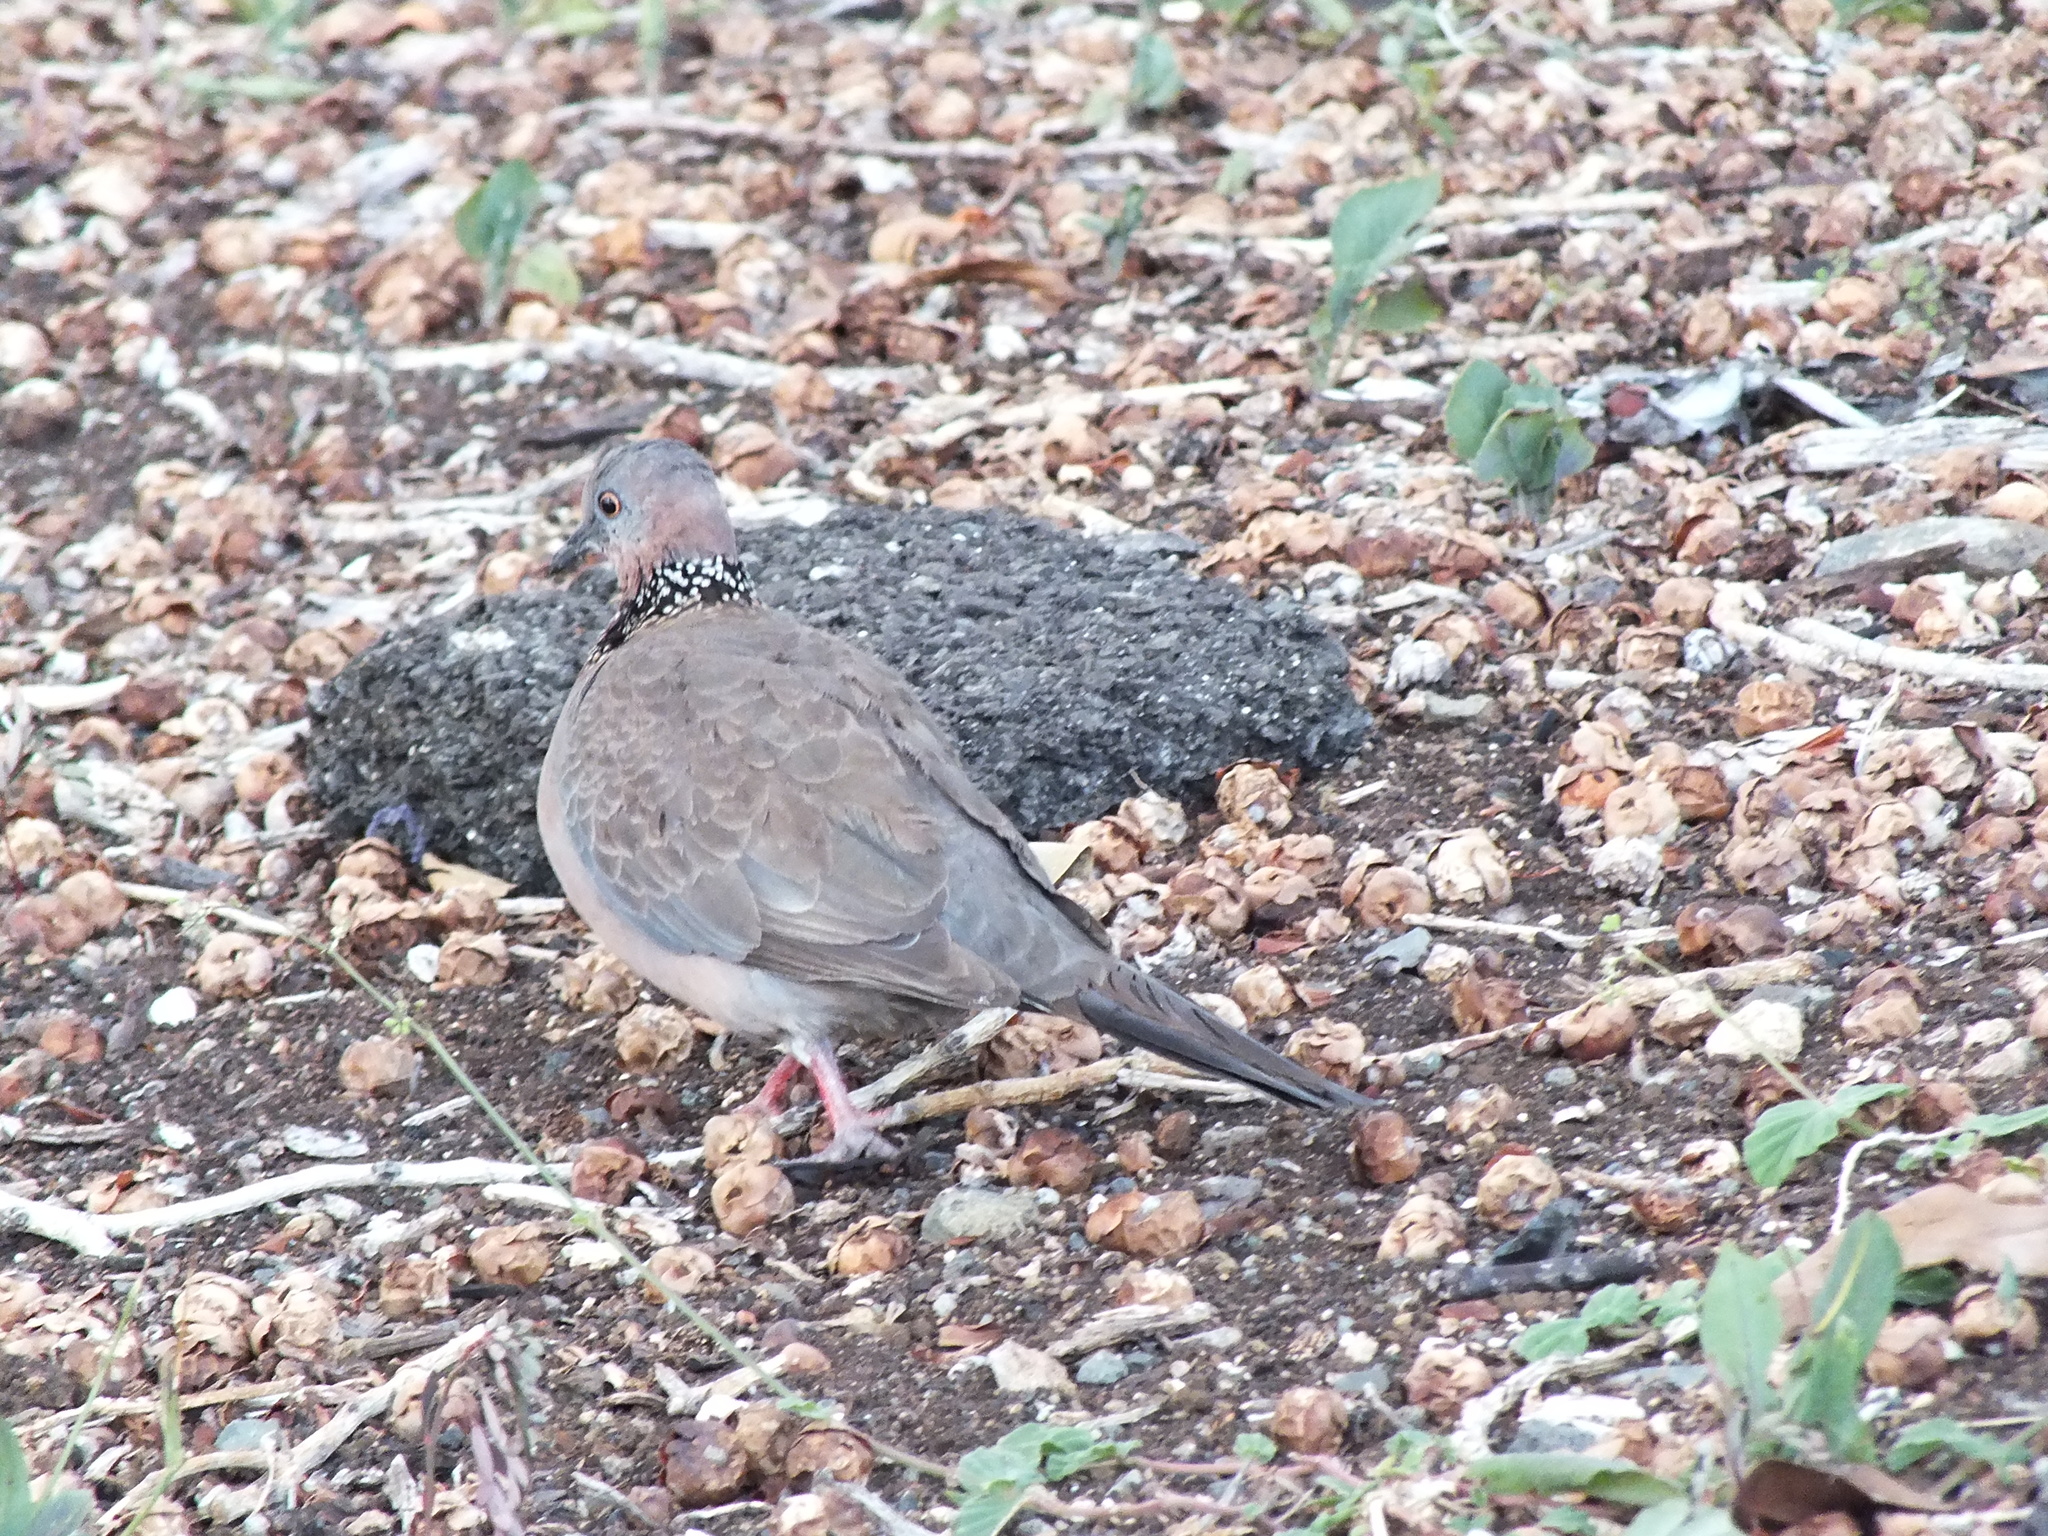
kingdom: Animalia
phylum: Chordata
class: Aves
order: Columbiformes
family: Columbidae
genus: Spilopelia
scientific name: Spilopelia chinensis
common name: Spotted dove
